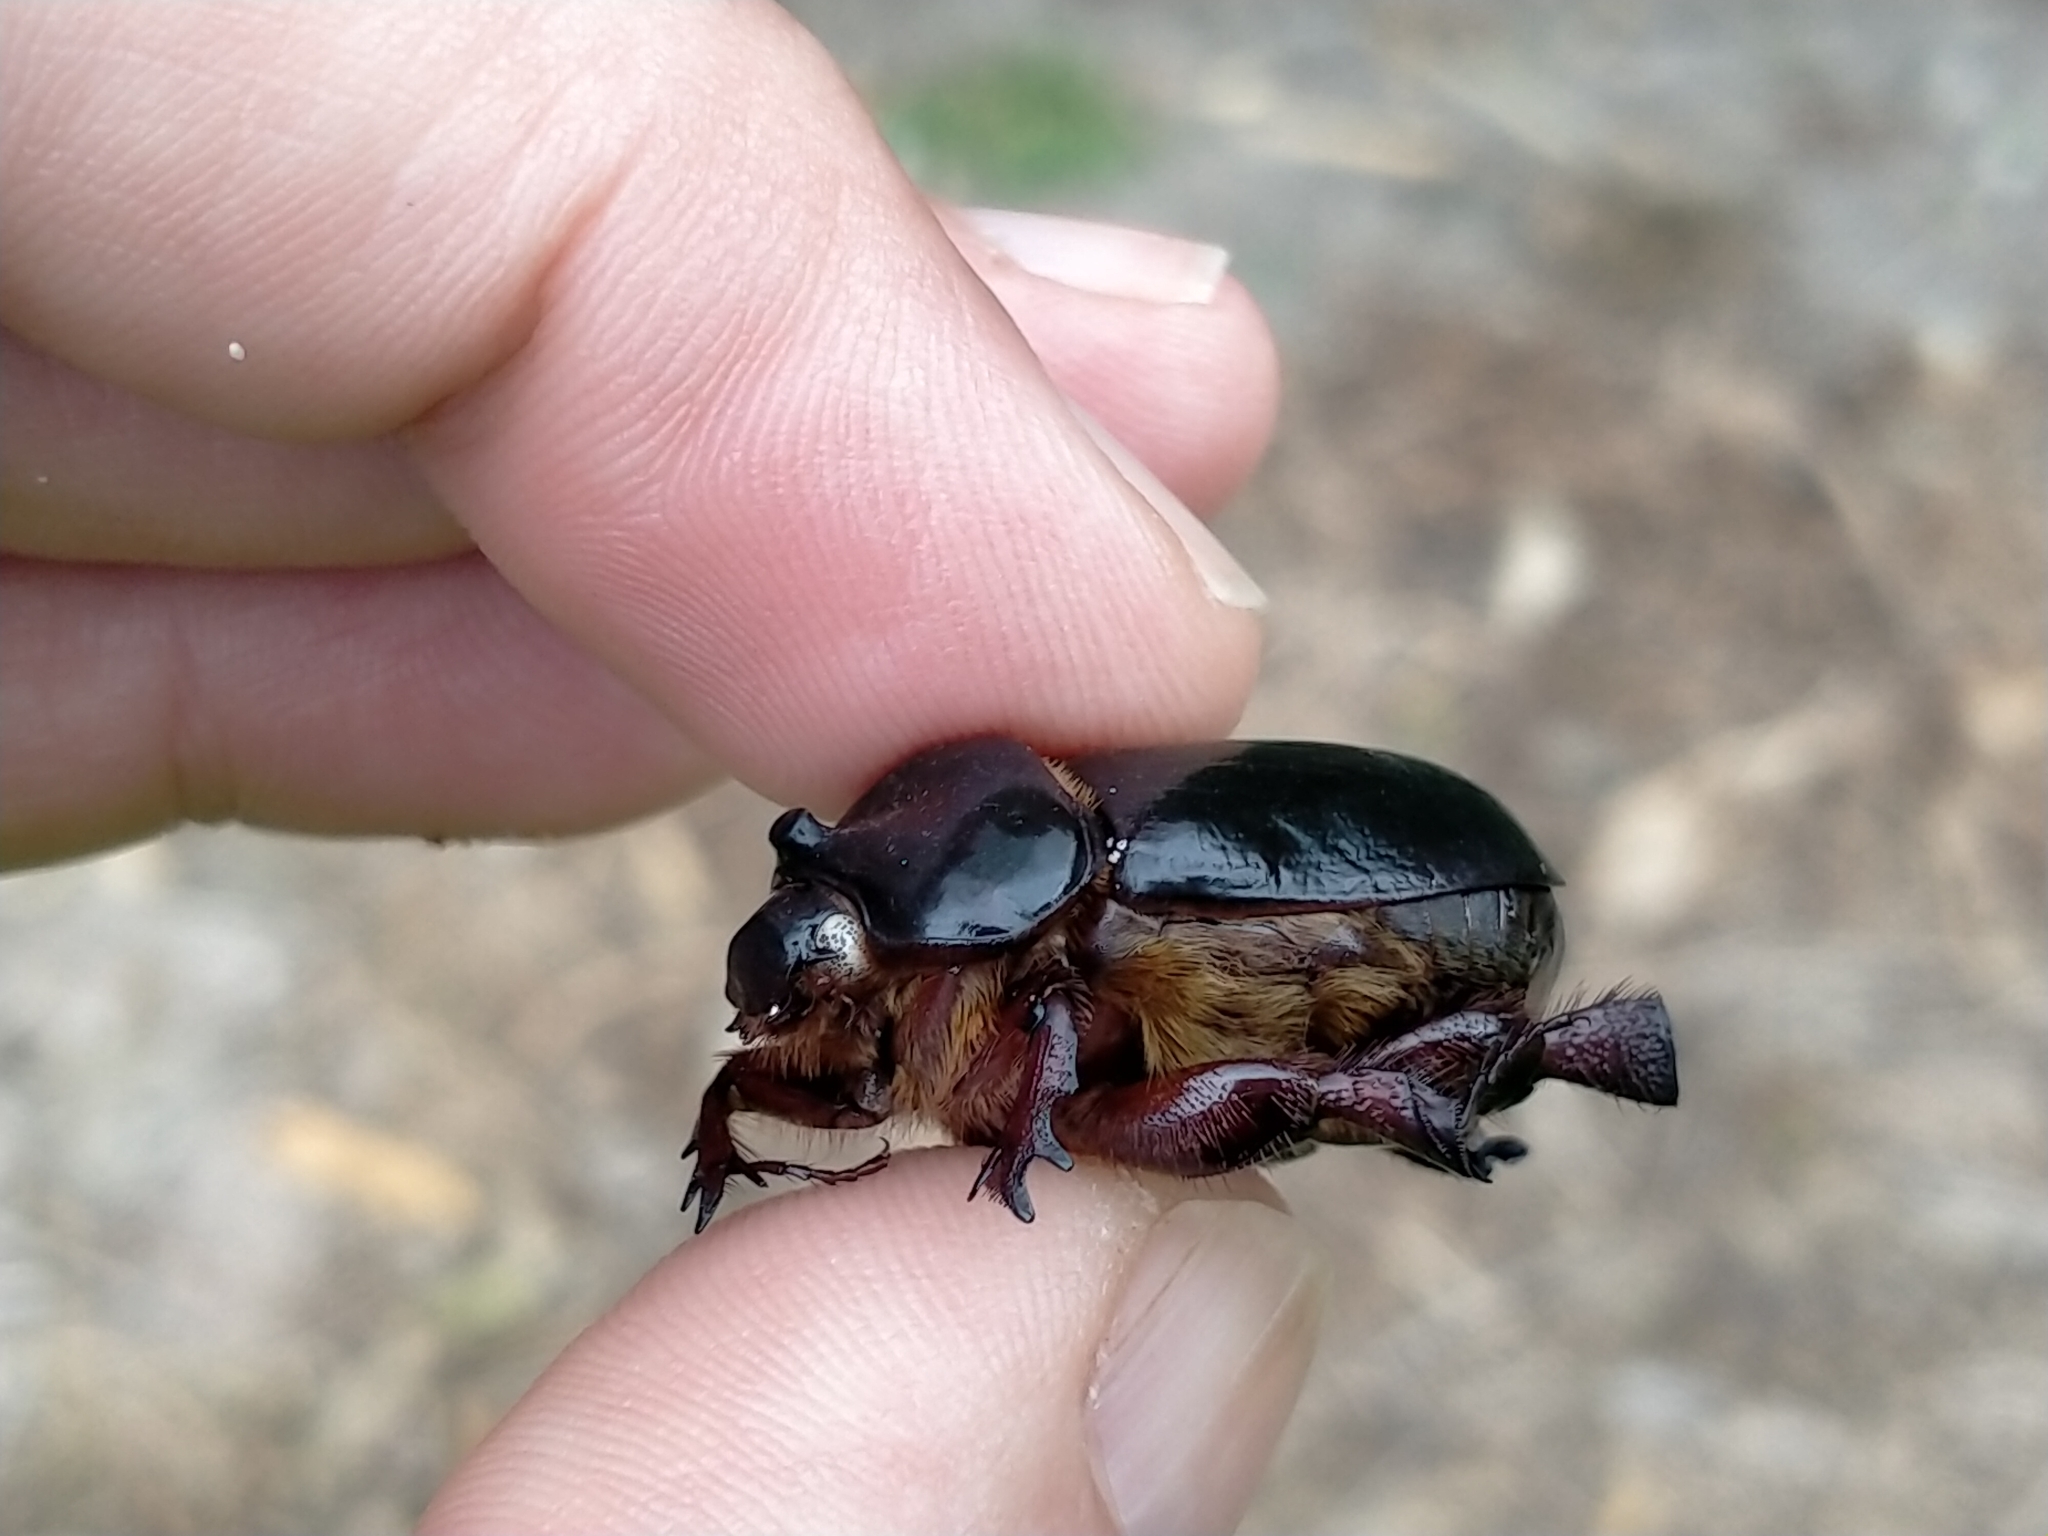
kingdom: Animalia
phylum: Arthropoda
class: Insecta
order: Coleoptera
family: Scarabaeidae
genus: Pericoptus
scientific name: Pericoptus truncatus
